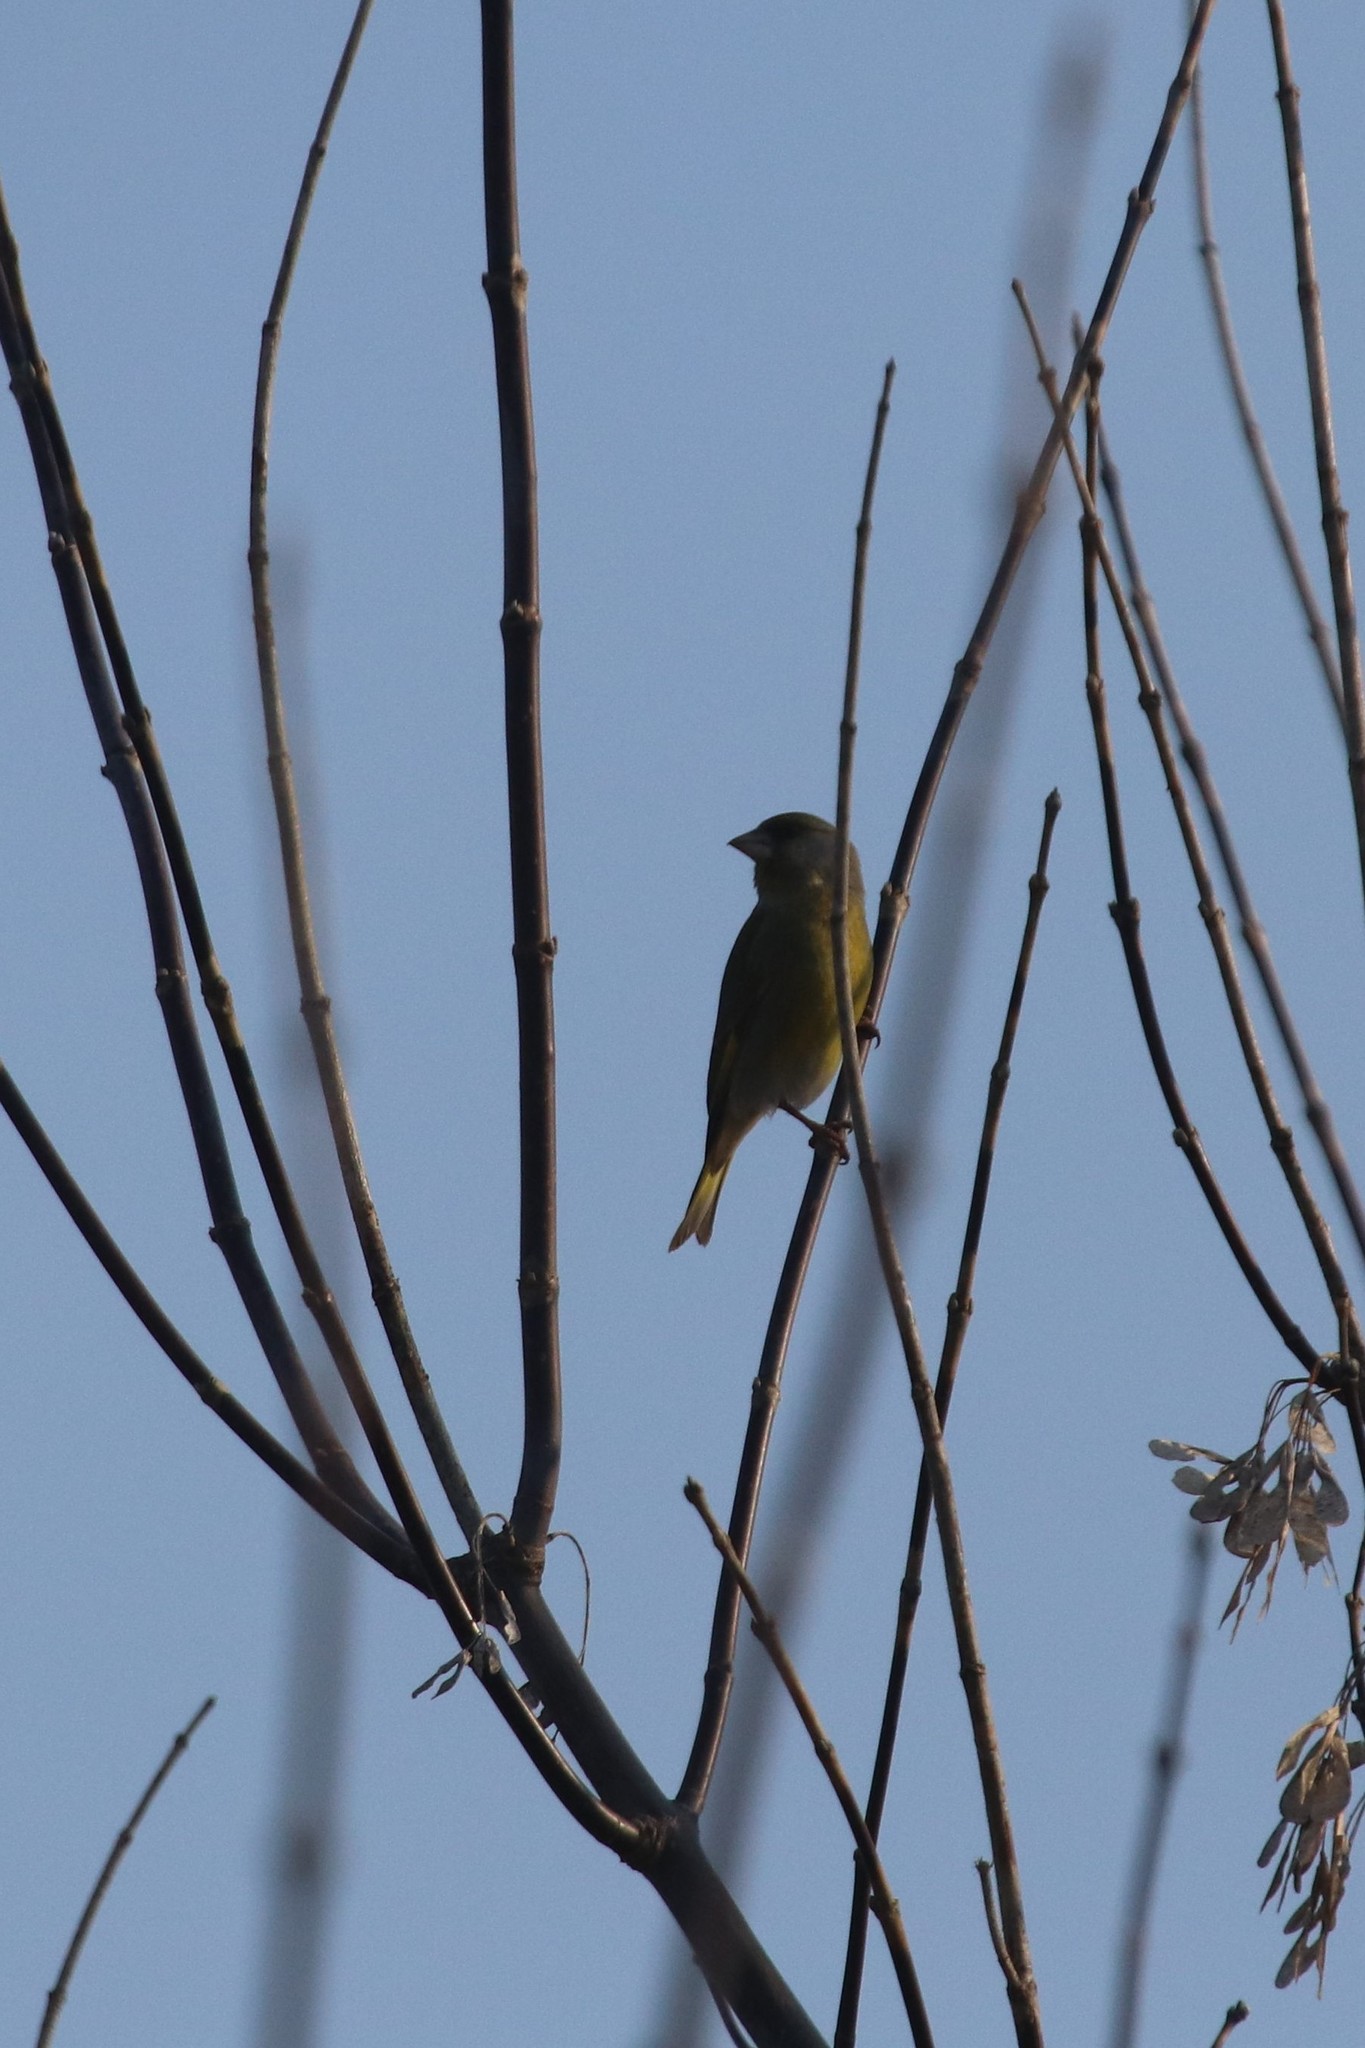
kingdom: Plantae
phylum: Tracheophyta
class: Liliopsida
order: Poales
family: Poaceae
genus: Chloris
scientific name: Chloris chloris
